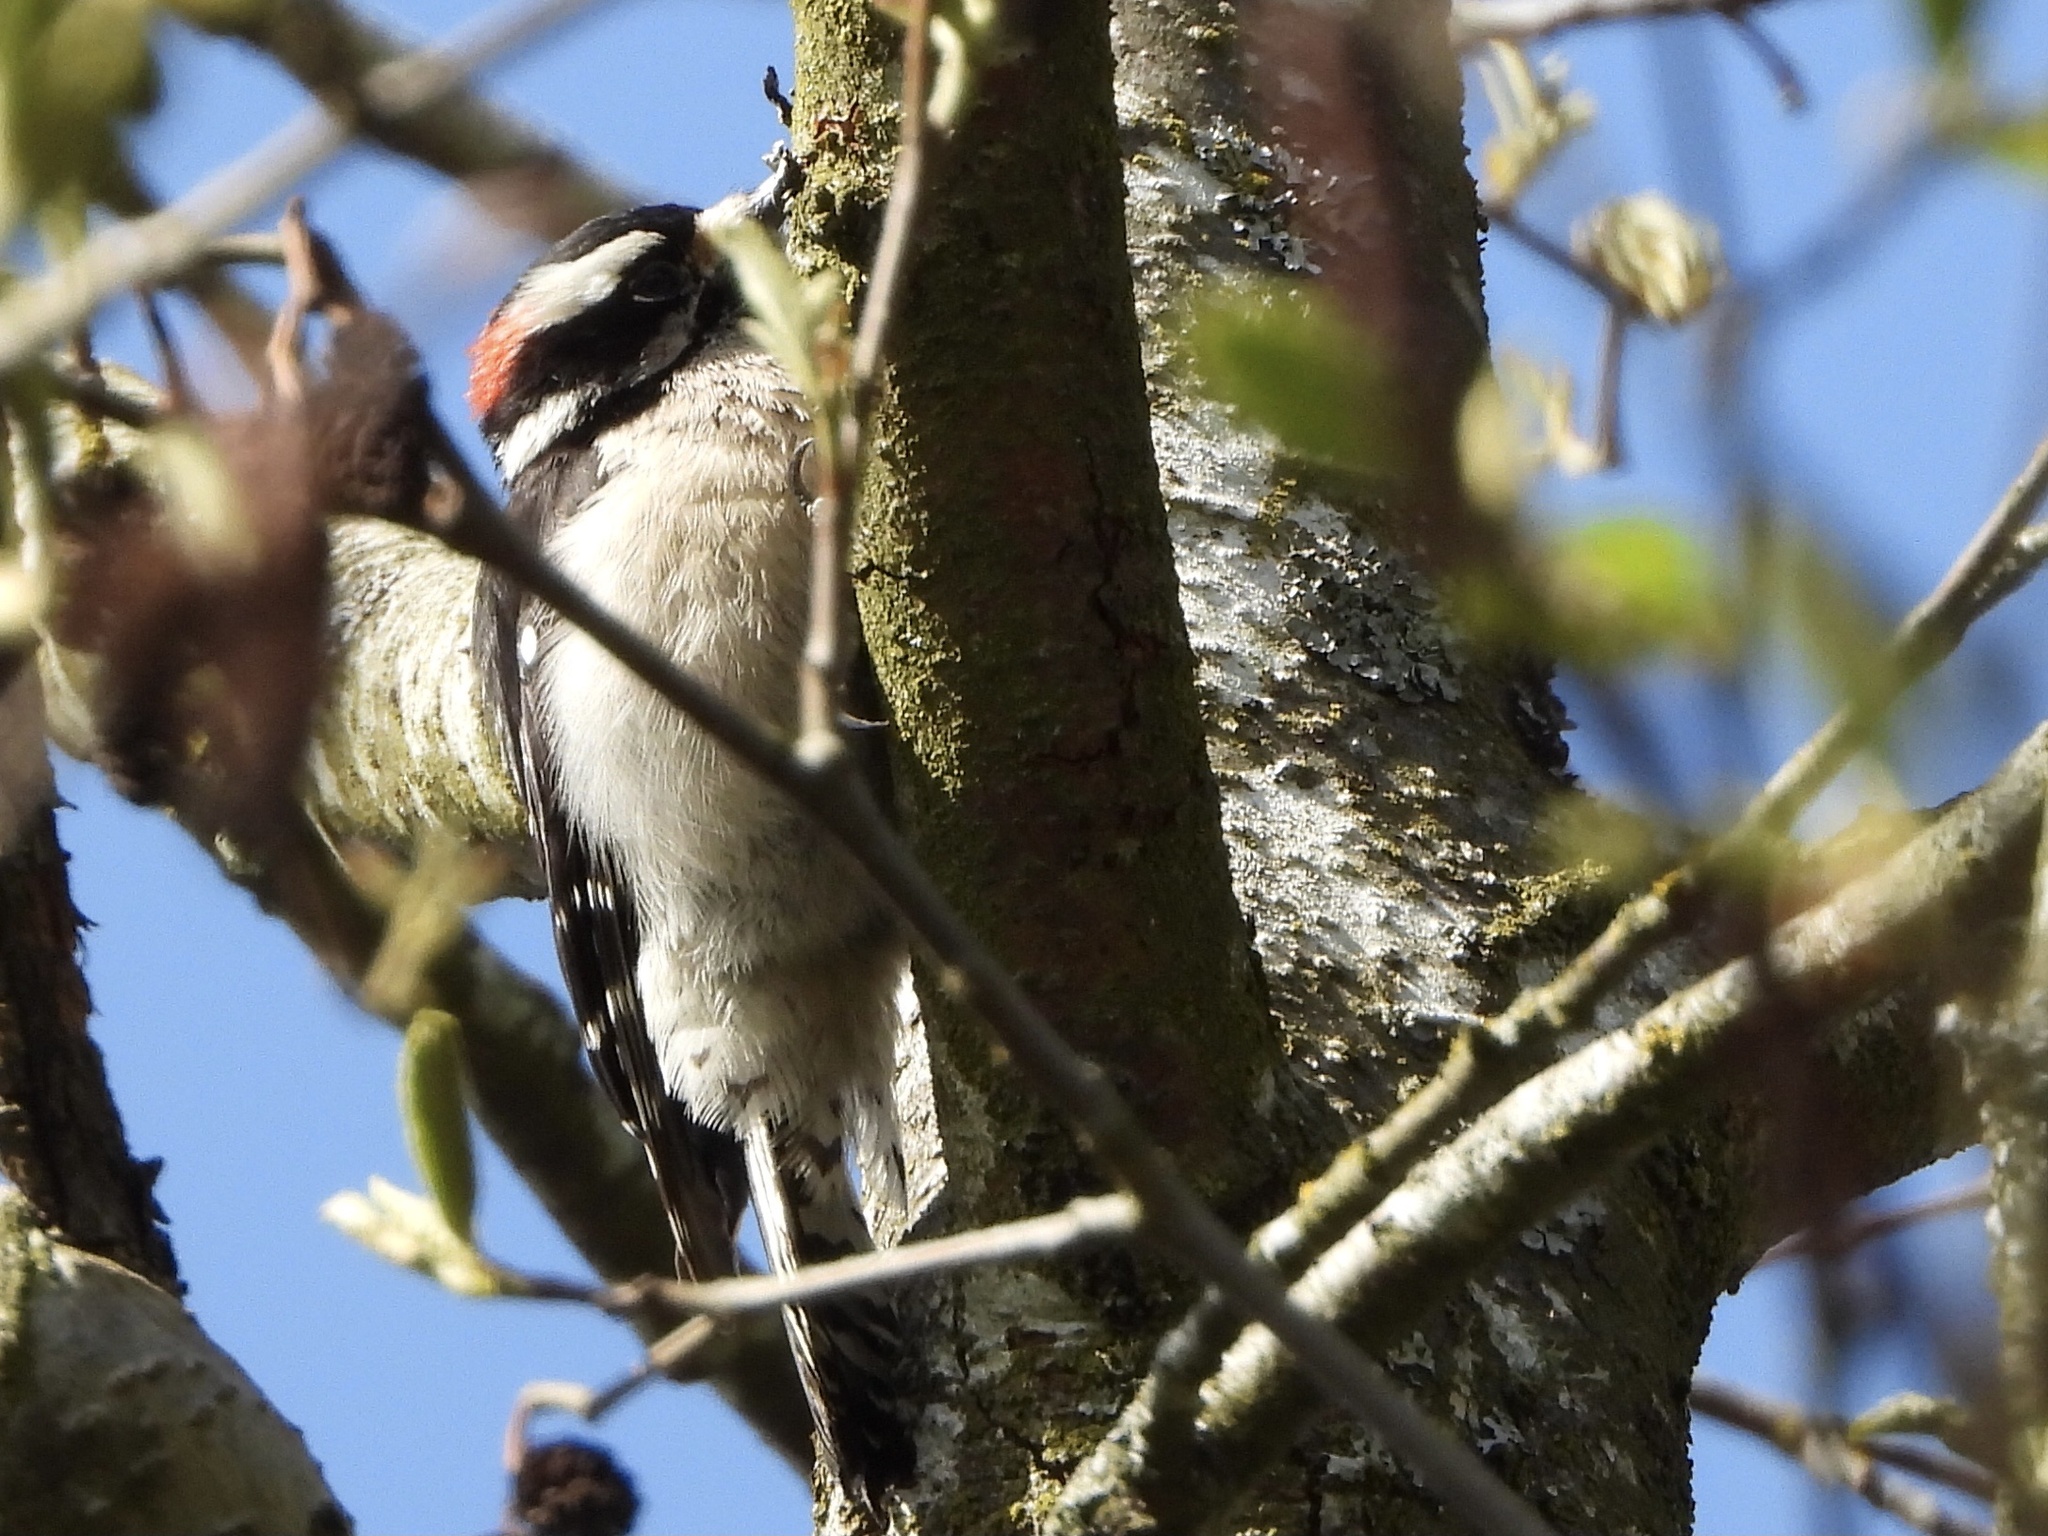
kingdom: Animalia
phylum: Chordata
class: Aves
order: Piciformes
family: Picidae
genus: Dryobates
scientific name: Dryobates pubescens
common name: Downy woodpecker
